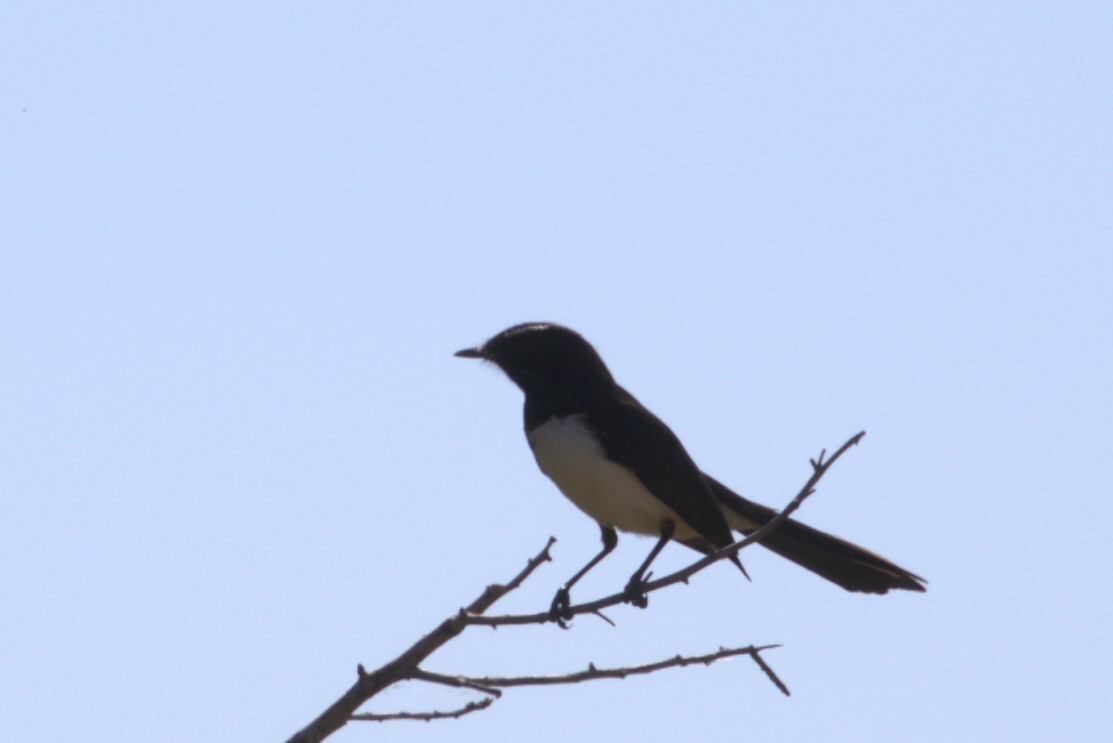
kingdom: Animalia
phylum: Chordata
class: Aves
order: Passeriformes
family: Rhipiduridae
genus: Rhipidura
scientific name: Rhipidura leucophrys
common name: Willie wagtail
